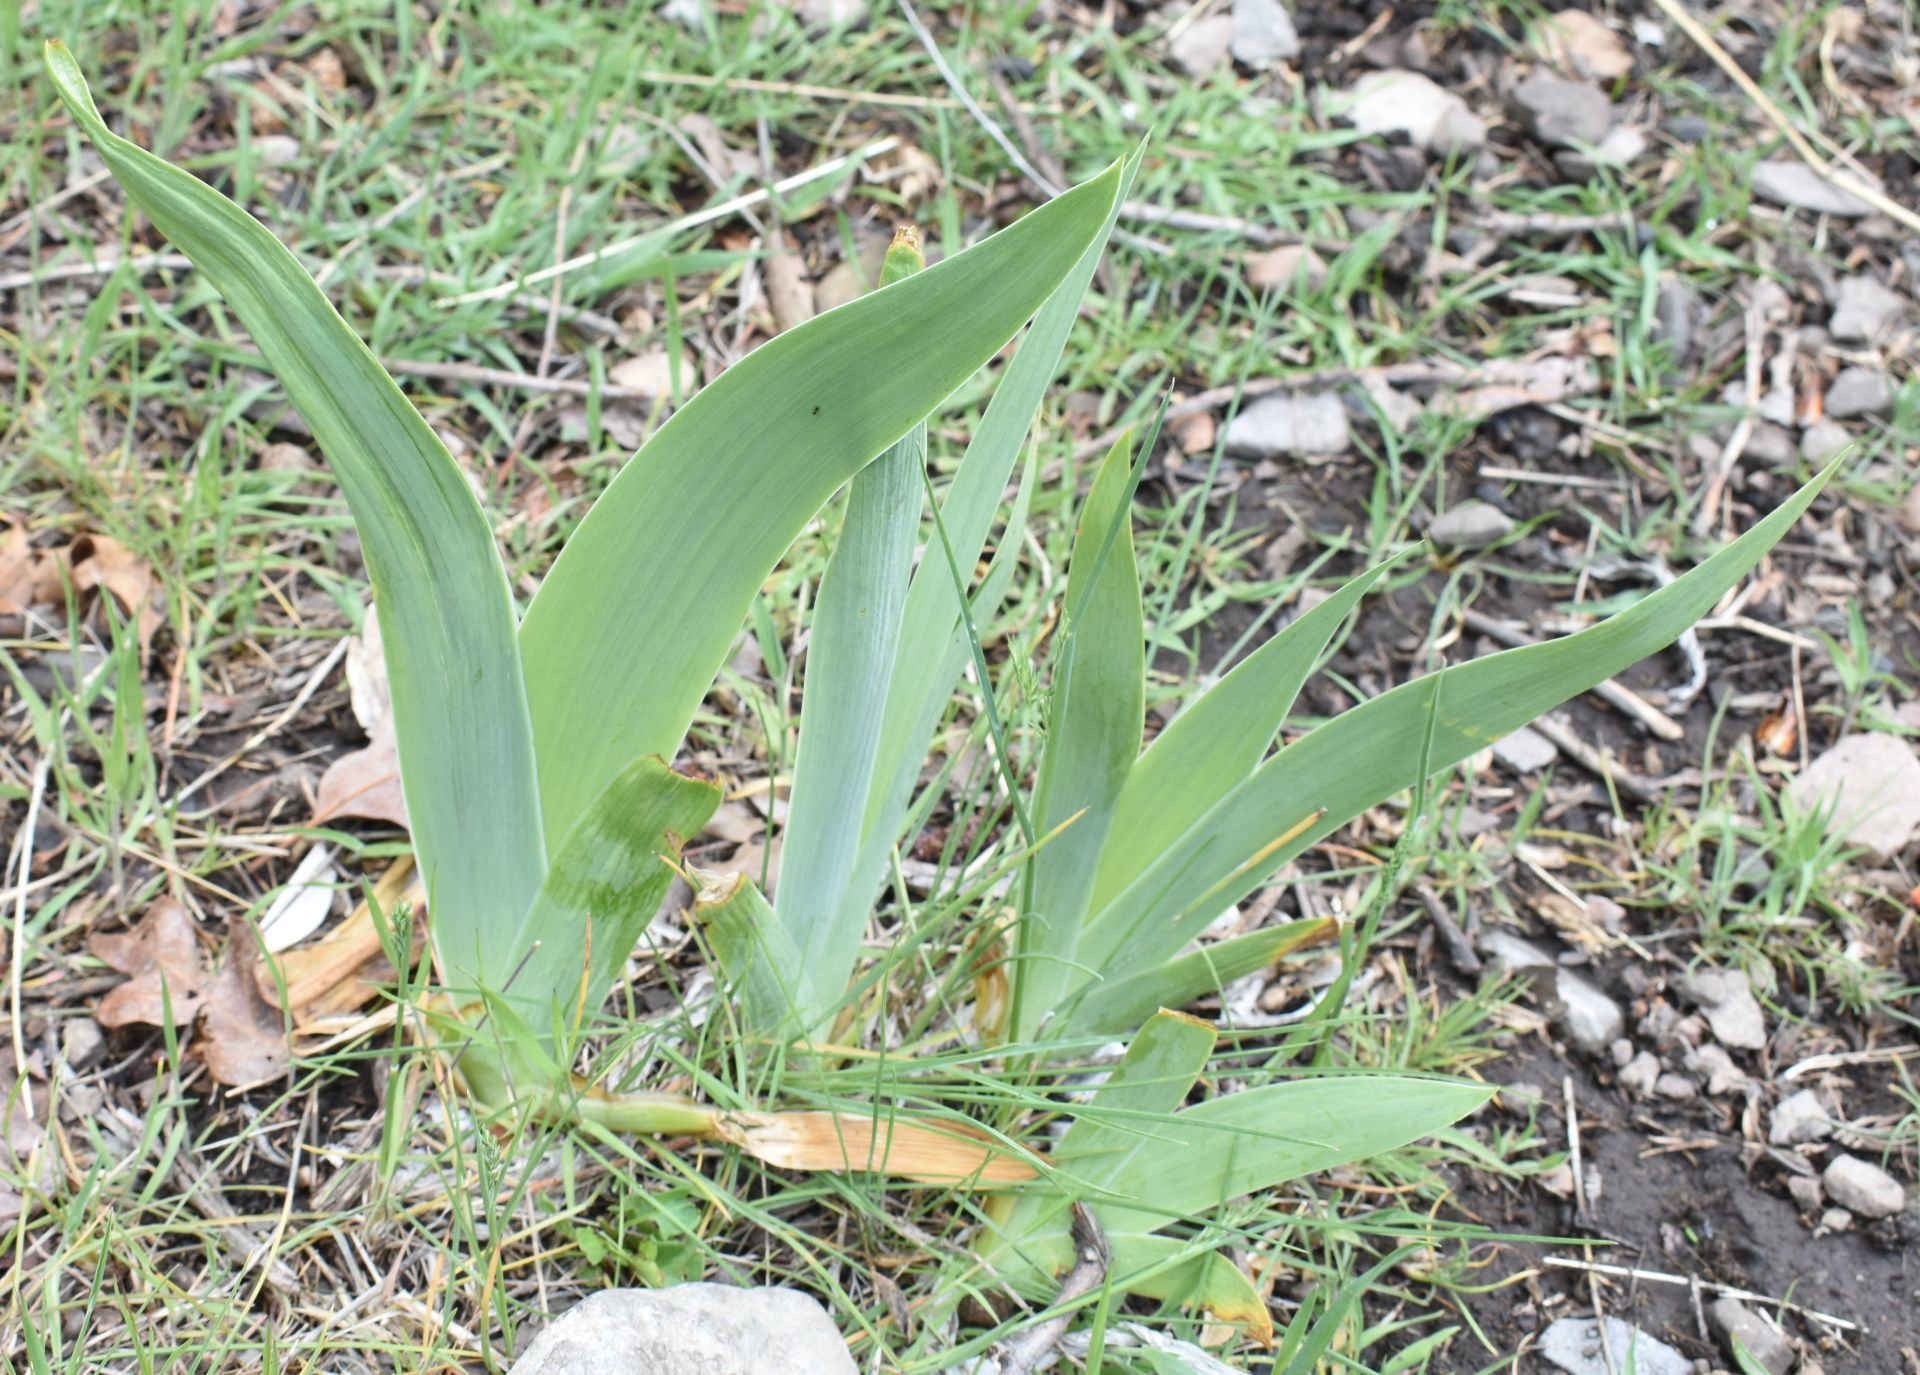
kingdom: Plantae
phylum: Tracheophyta
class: Liliopsida
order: Asparagales
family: Iridaceae
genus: Iris
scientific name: Iris germanica
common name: German iris
